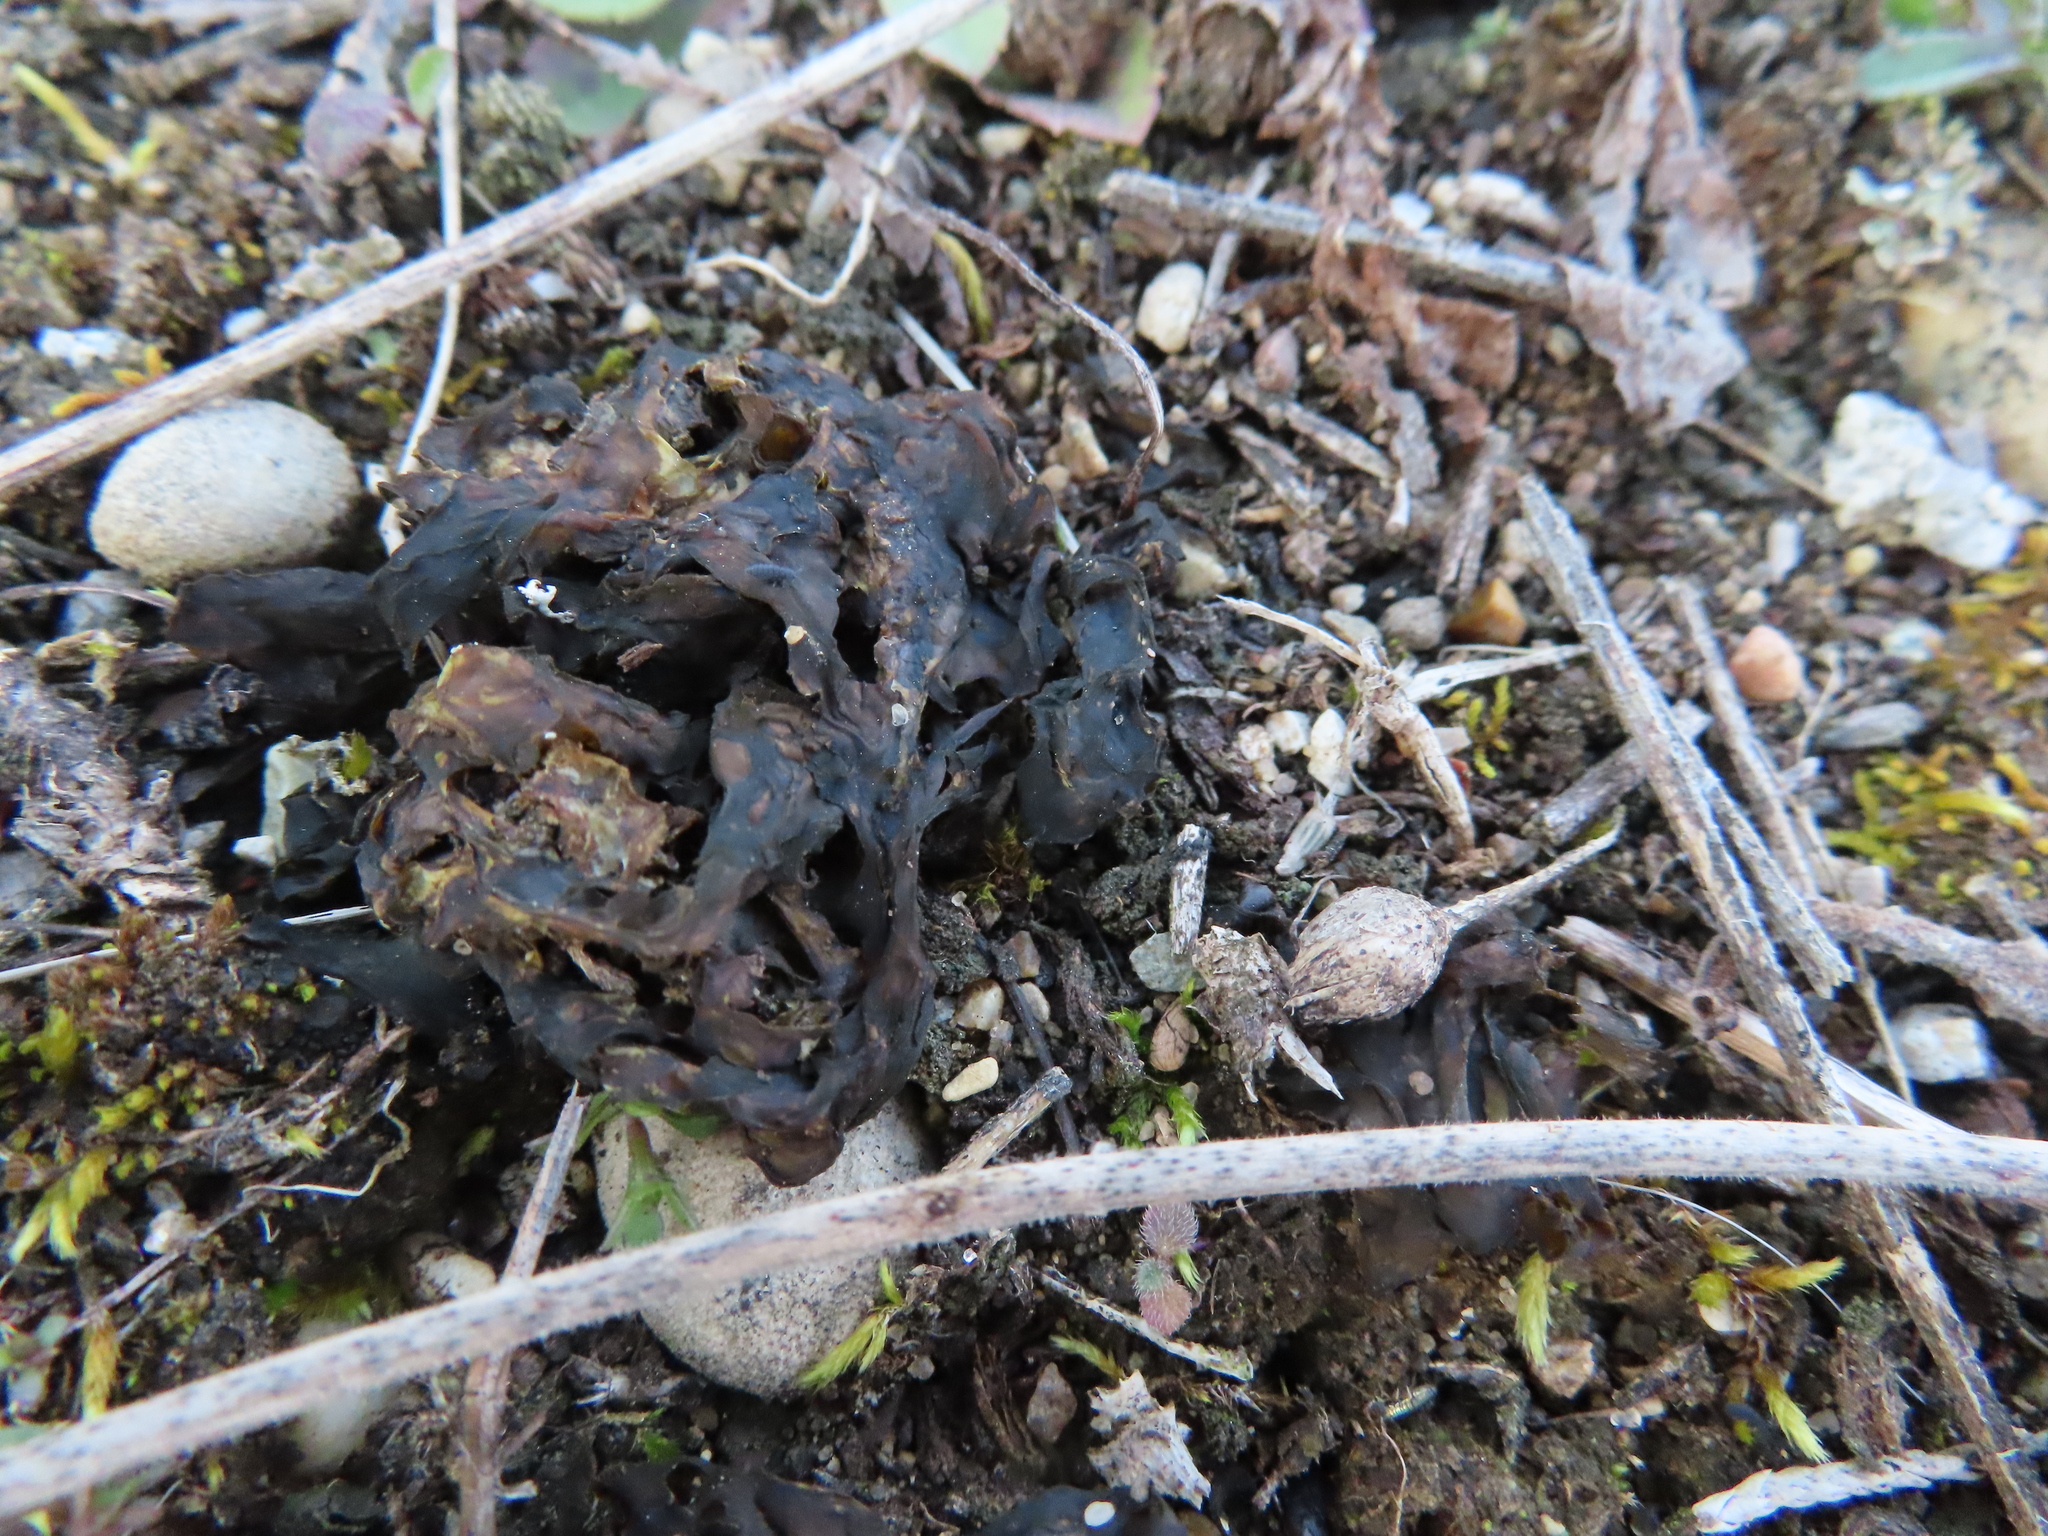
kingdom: Bacteria
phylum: Cyanobacteria
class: Cyanobacteriia
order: Cyanobacteriales
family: Nostocaceae
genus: Nostoc
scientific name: Nostoc commune
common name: Star jelly
